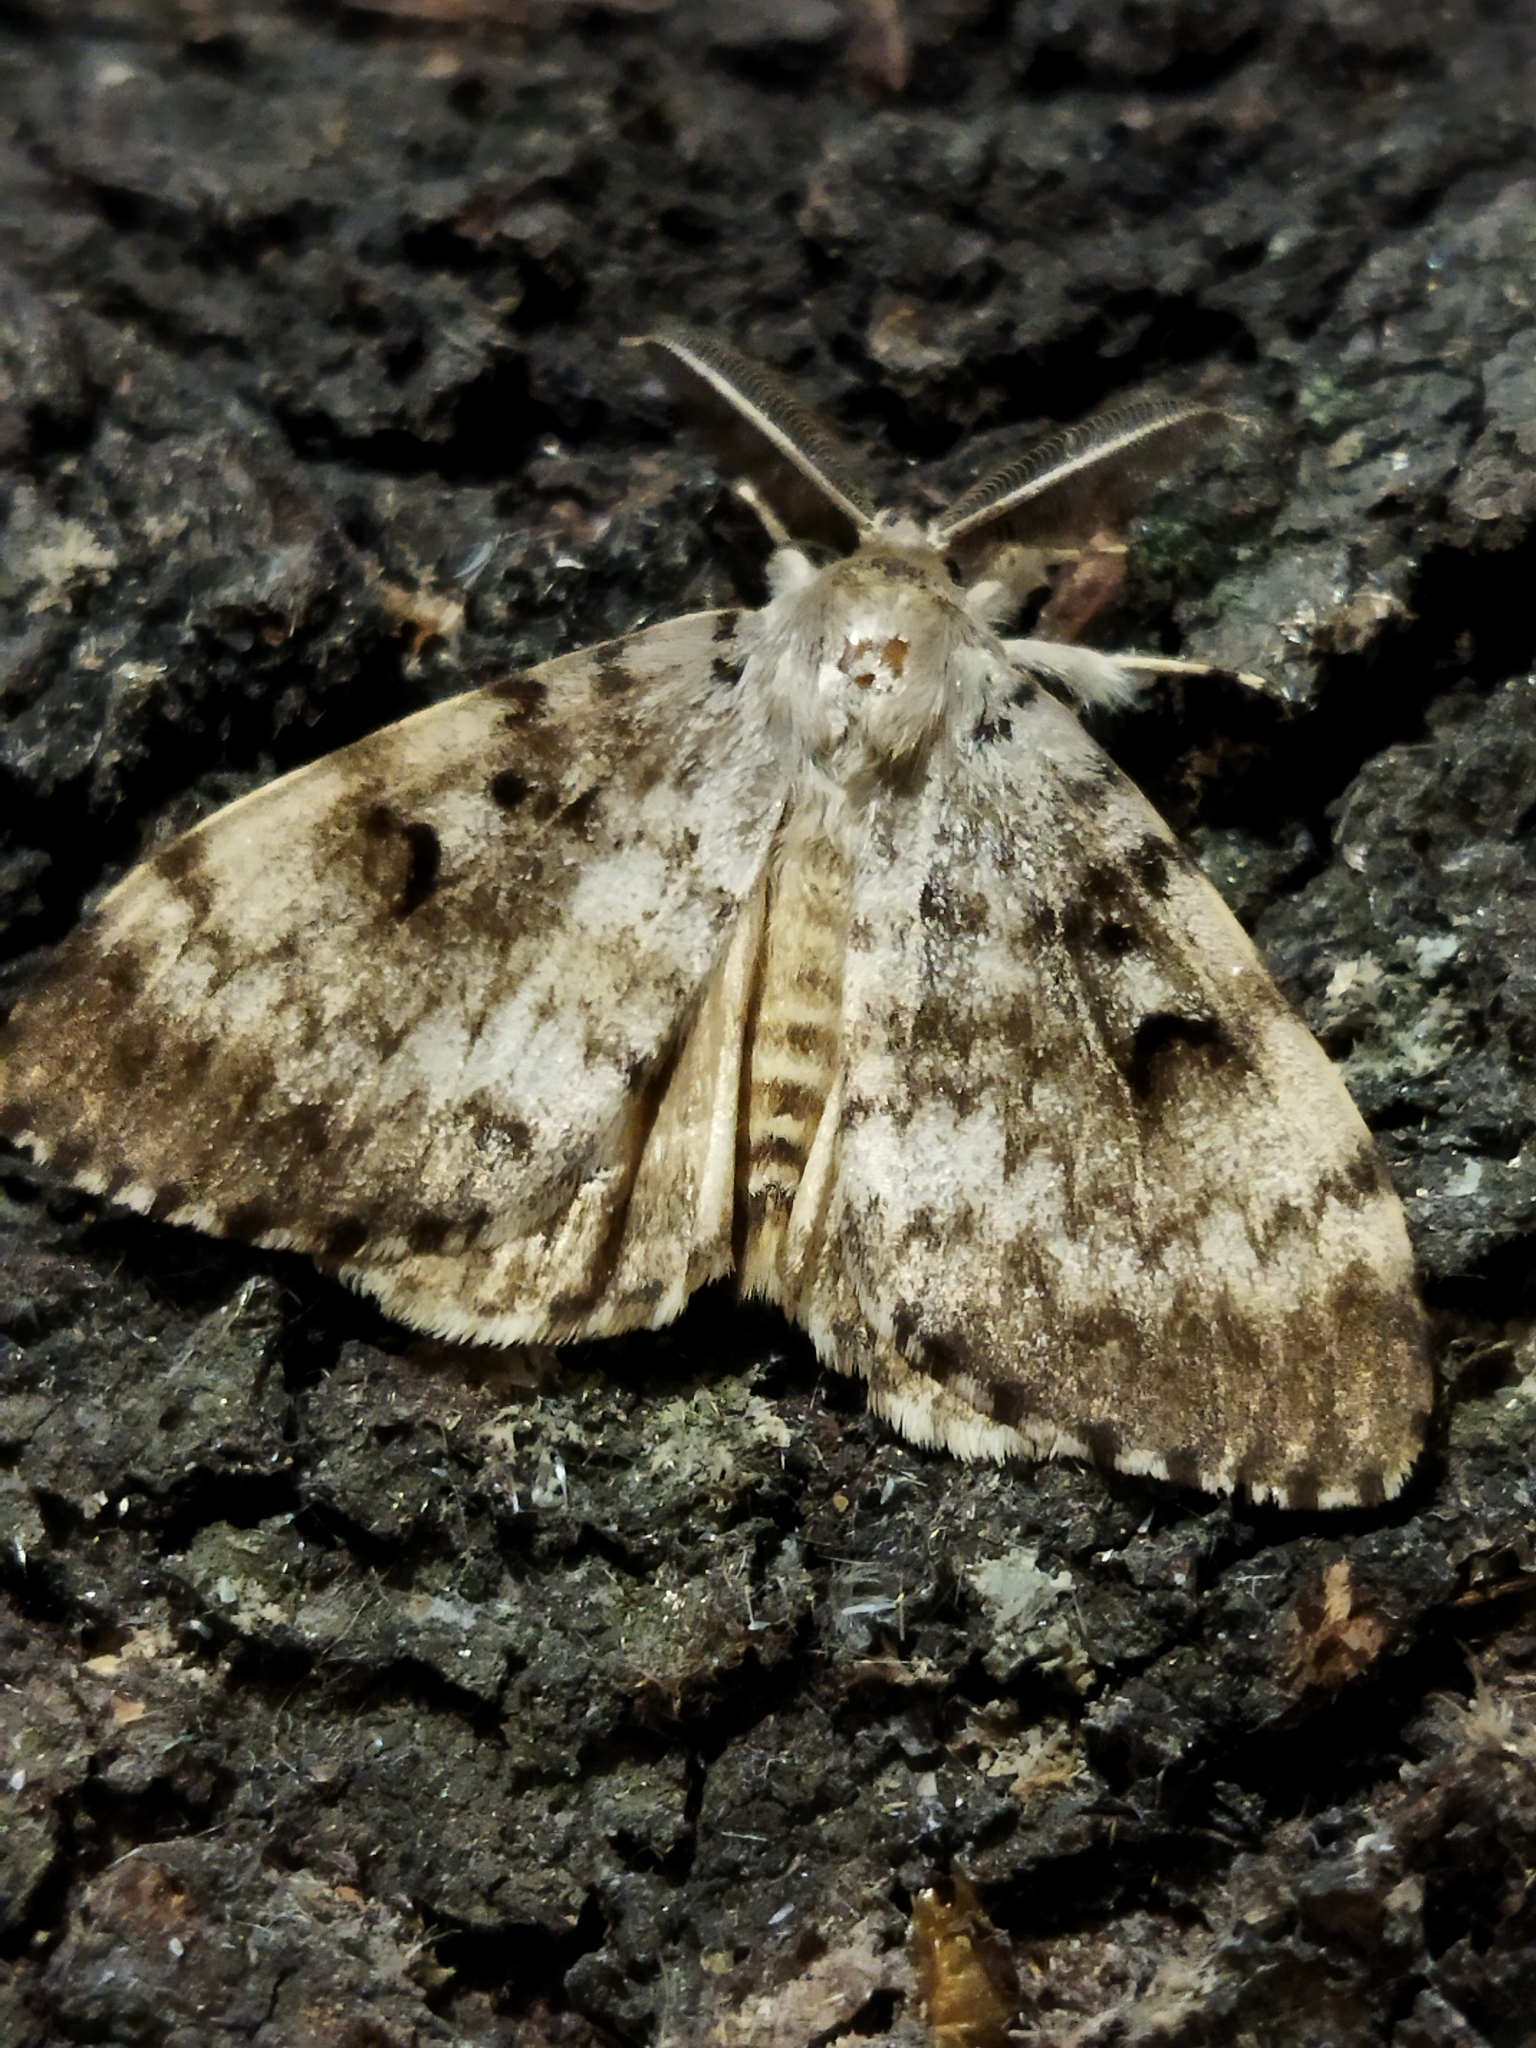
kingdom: Animalia
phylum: Arthropoda
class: Insecta
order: Lepidoptera
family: Erebidae
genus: Lymantria
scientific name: Lymantria dispar
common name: Gypsy moth
